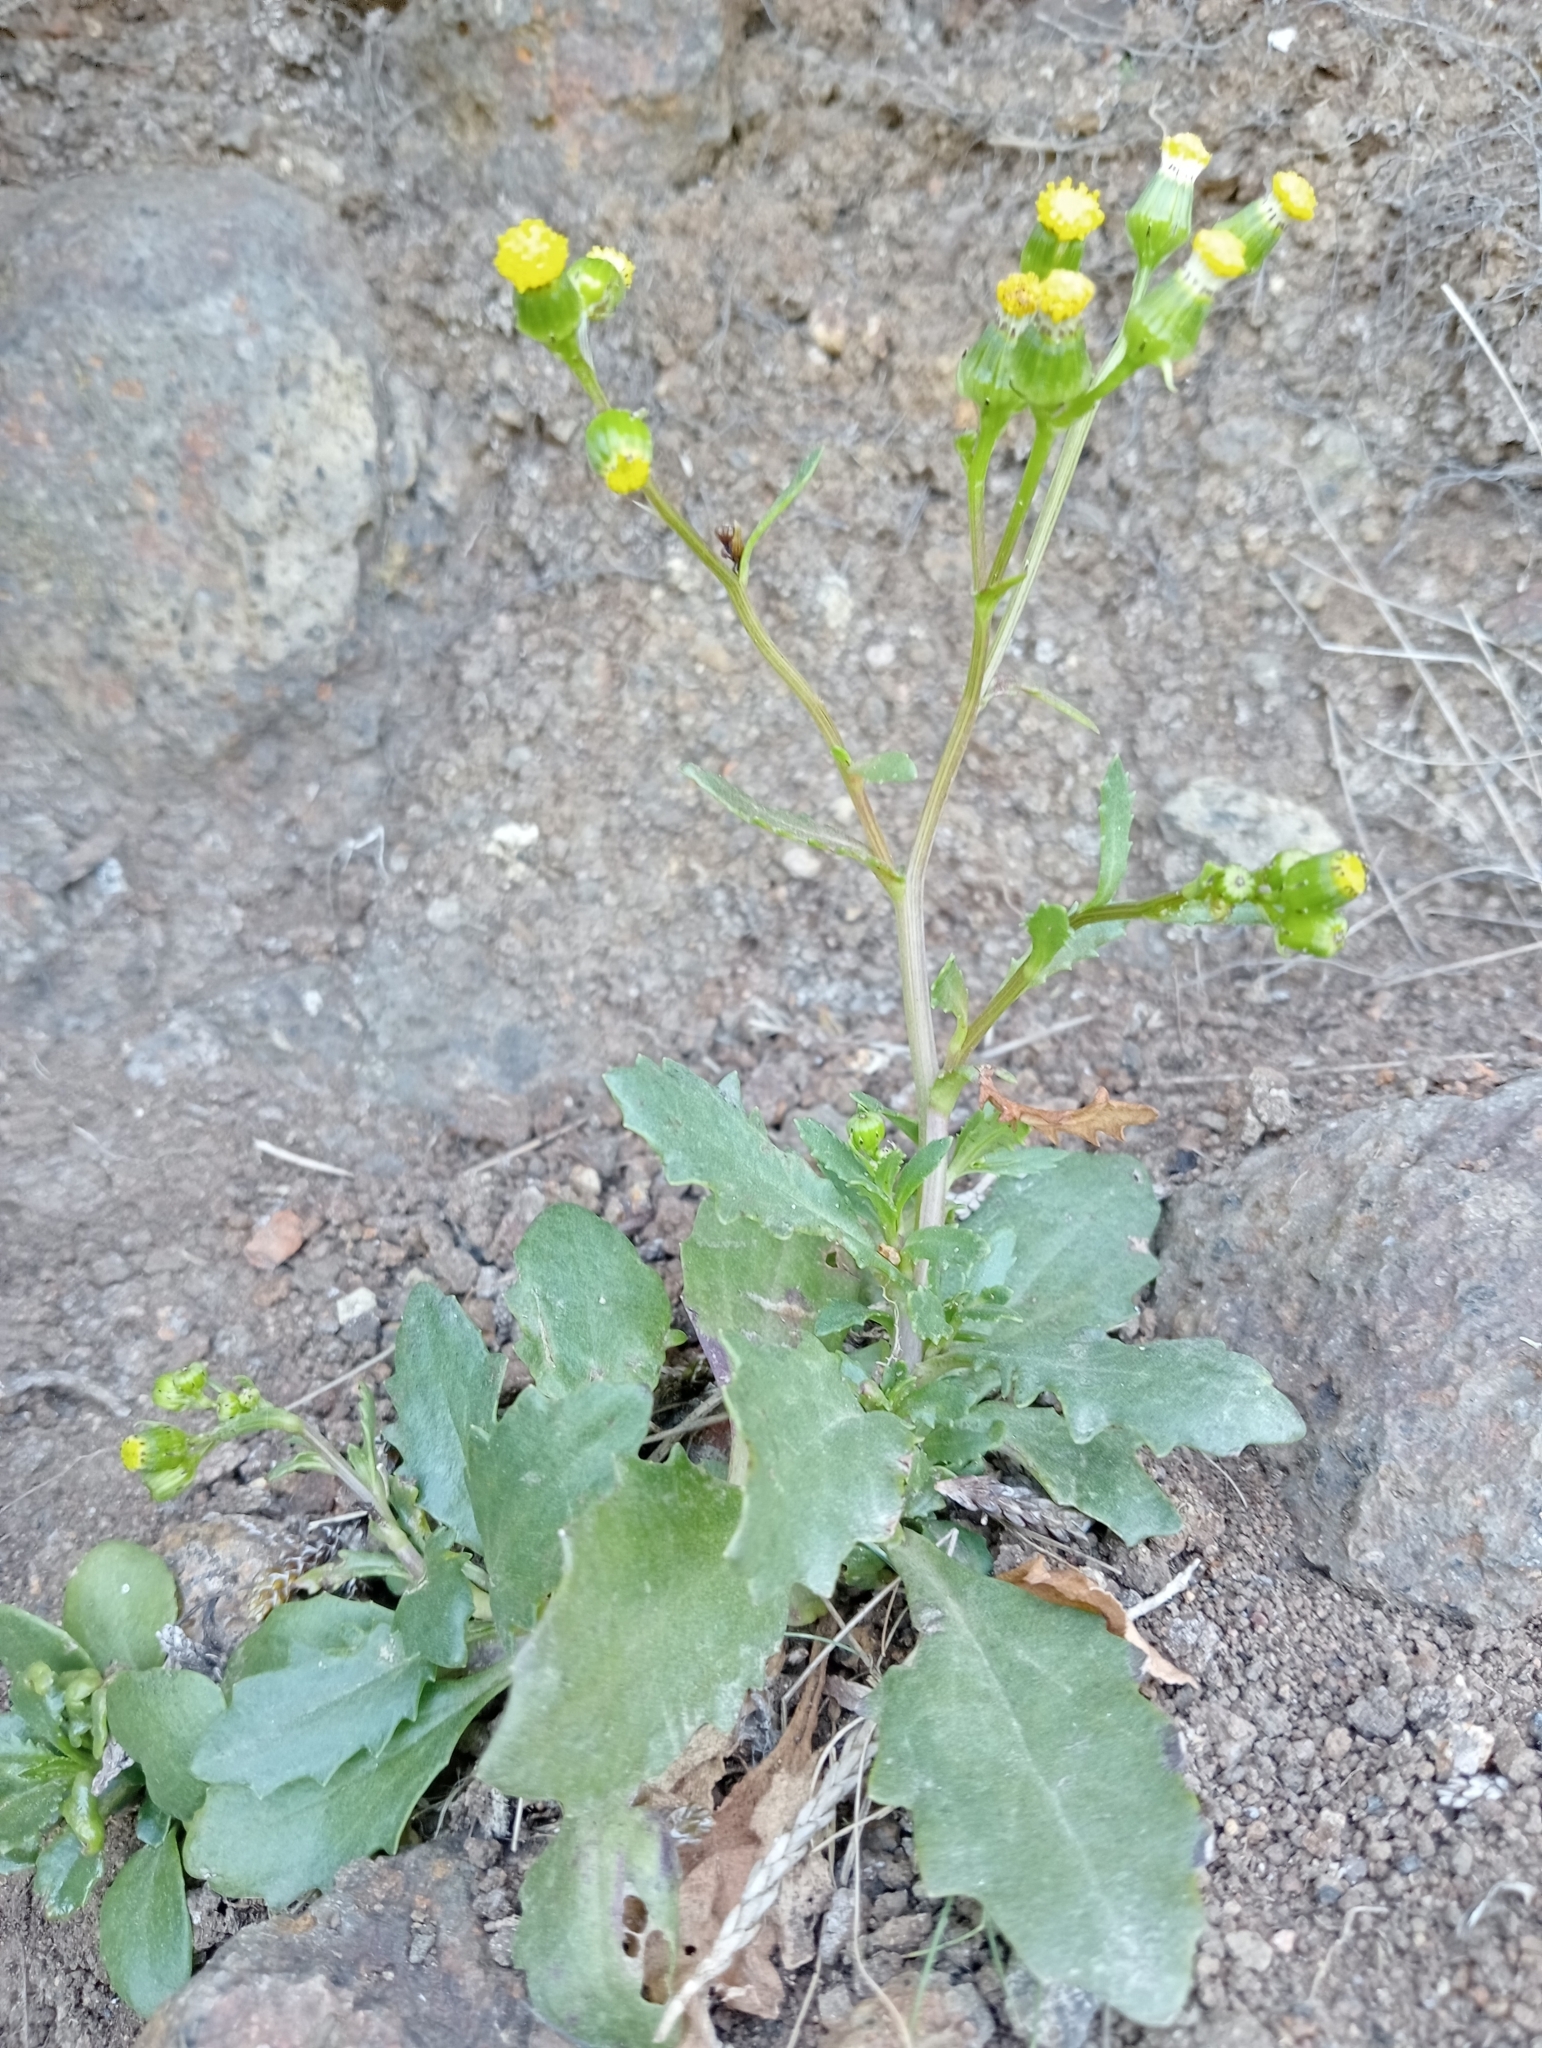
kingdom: Plantae
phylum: Tracheophyta
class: Magnoliopsida
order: Asterales
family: Asteraceae
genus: Senecio
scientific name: Senecio matatini
